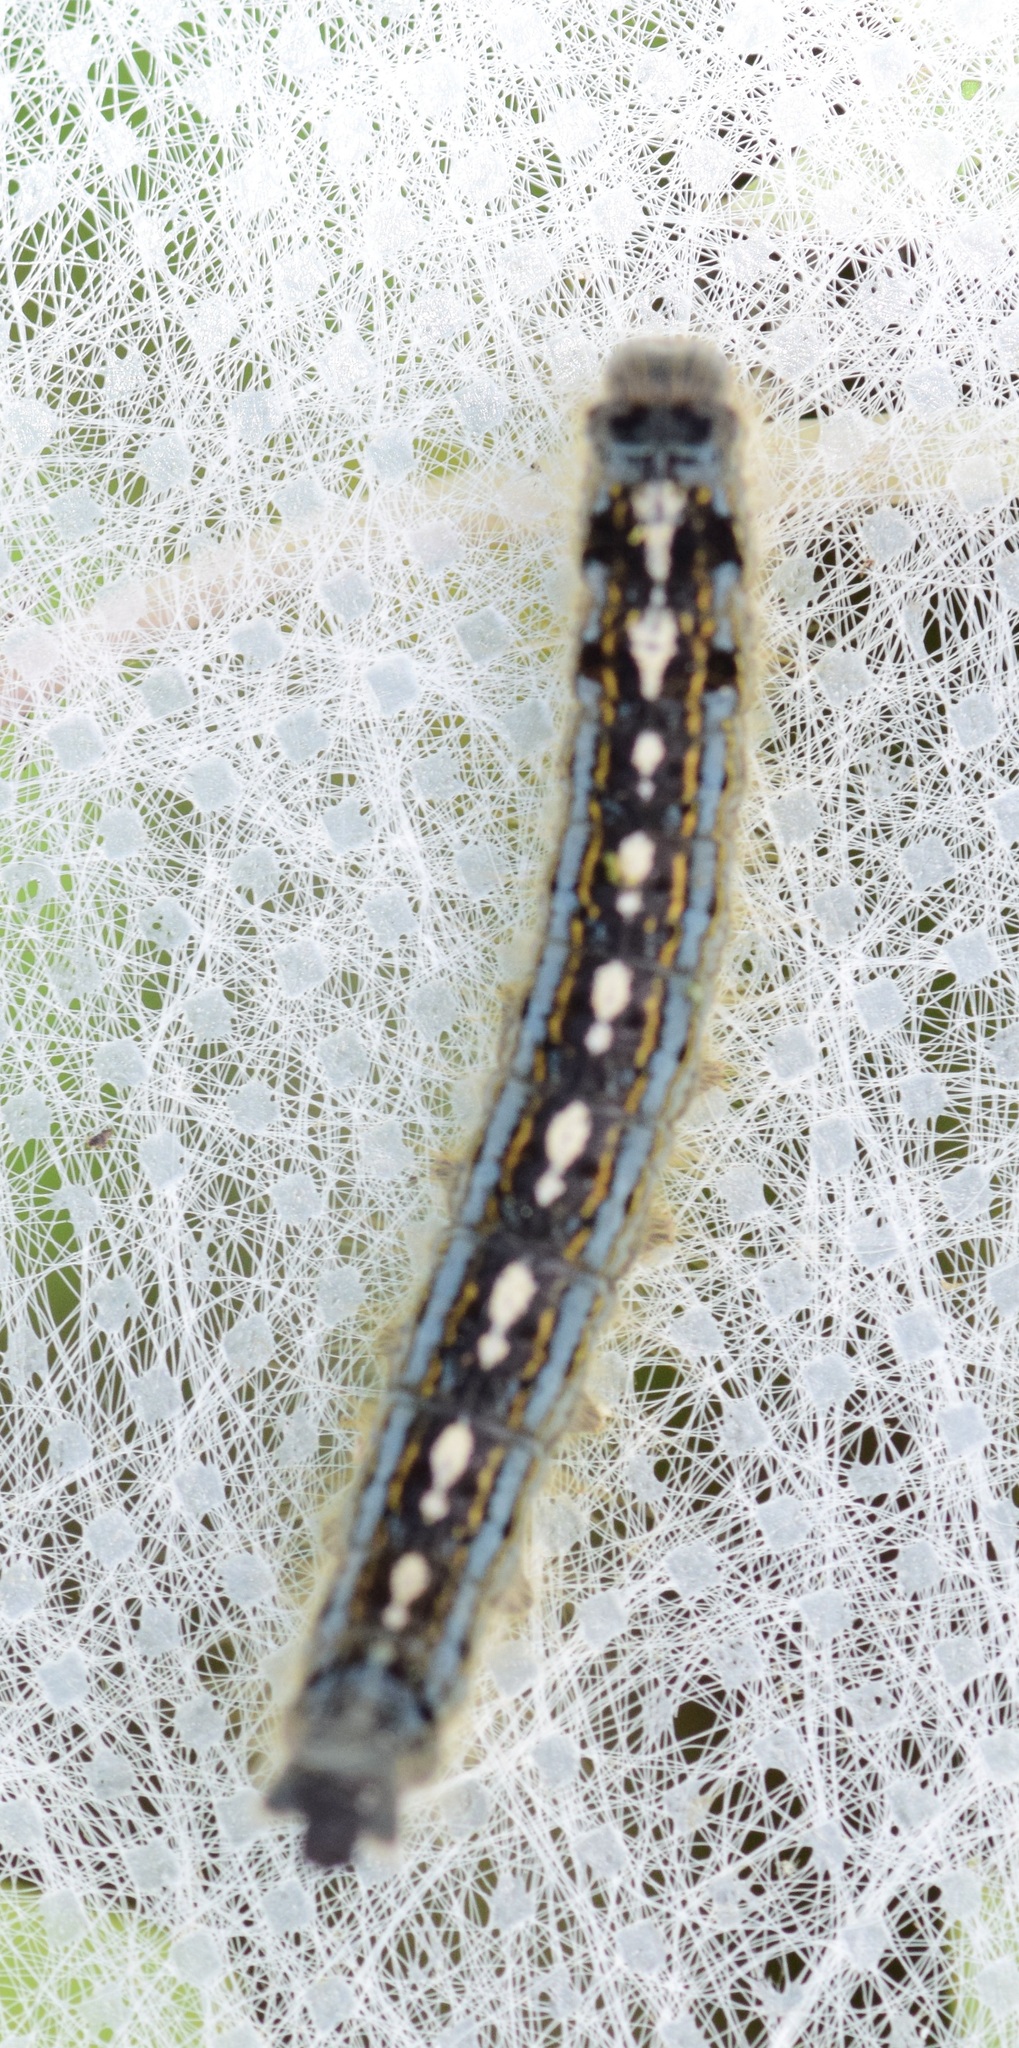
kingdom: Animalia
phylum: Arthropoda
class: Insecta
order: Lepidoptera
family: Lasiocampidae
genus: Malacosoma
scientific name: Malacosoma disstria
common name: Forest tent caterpillar
